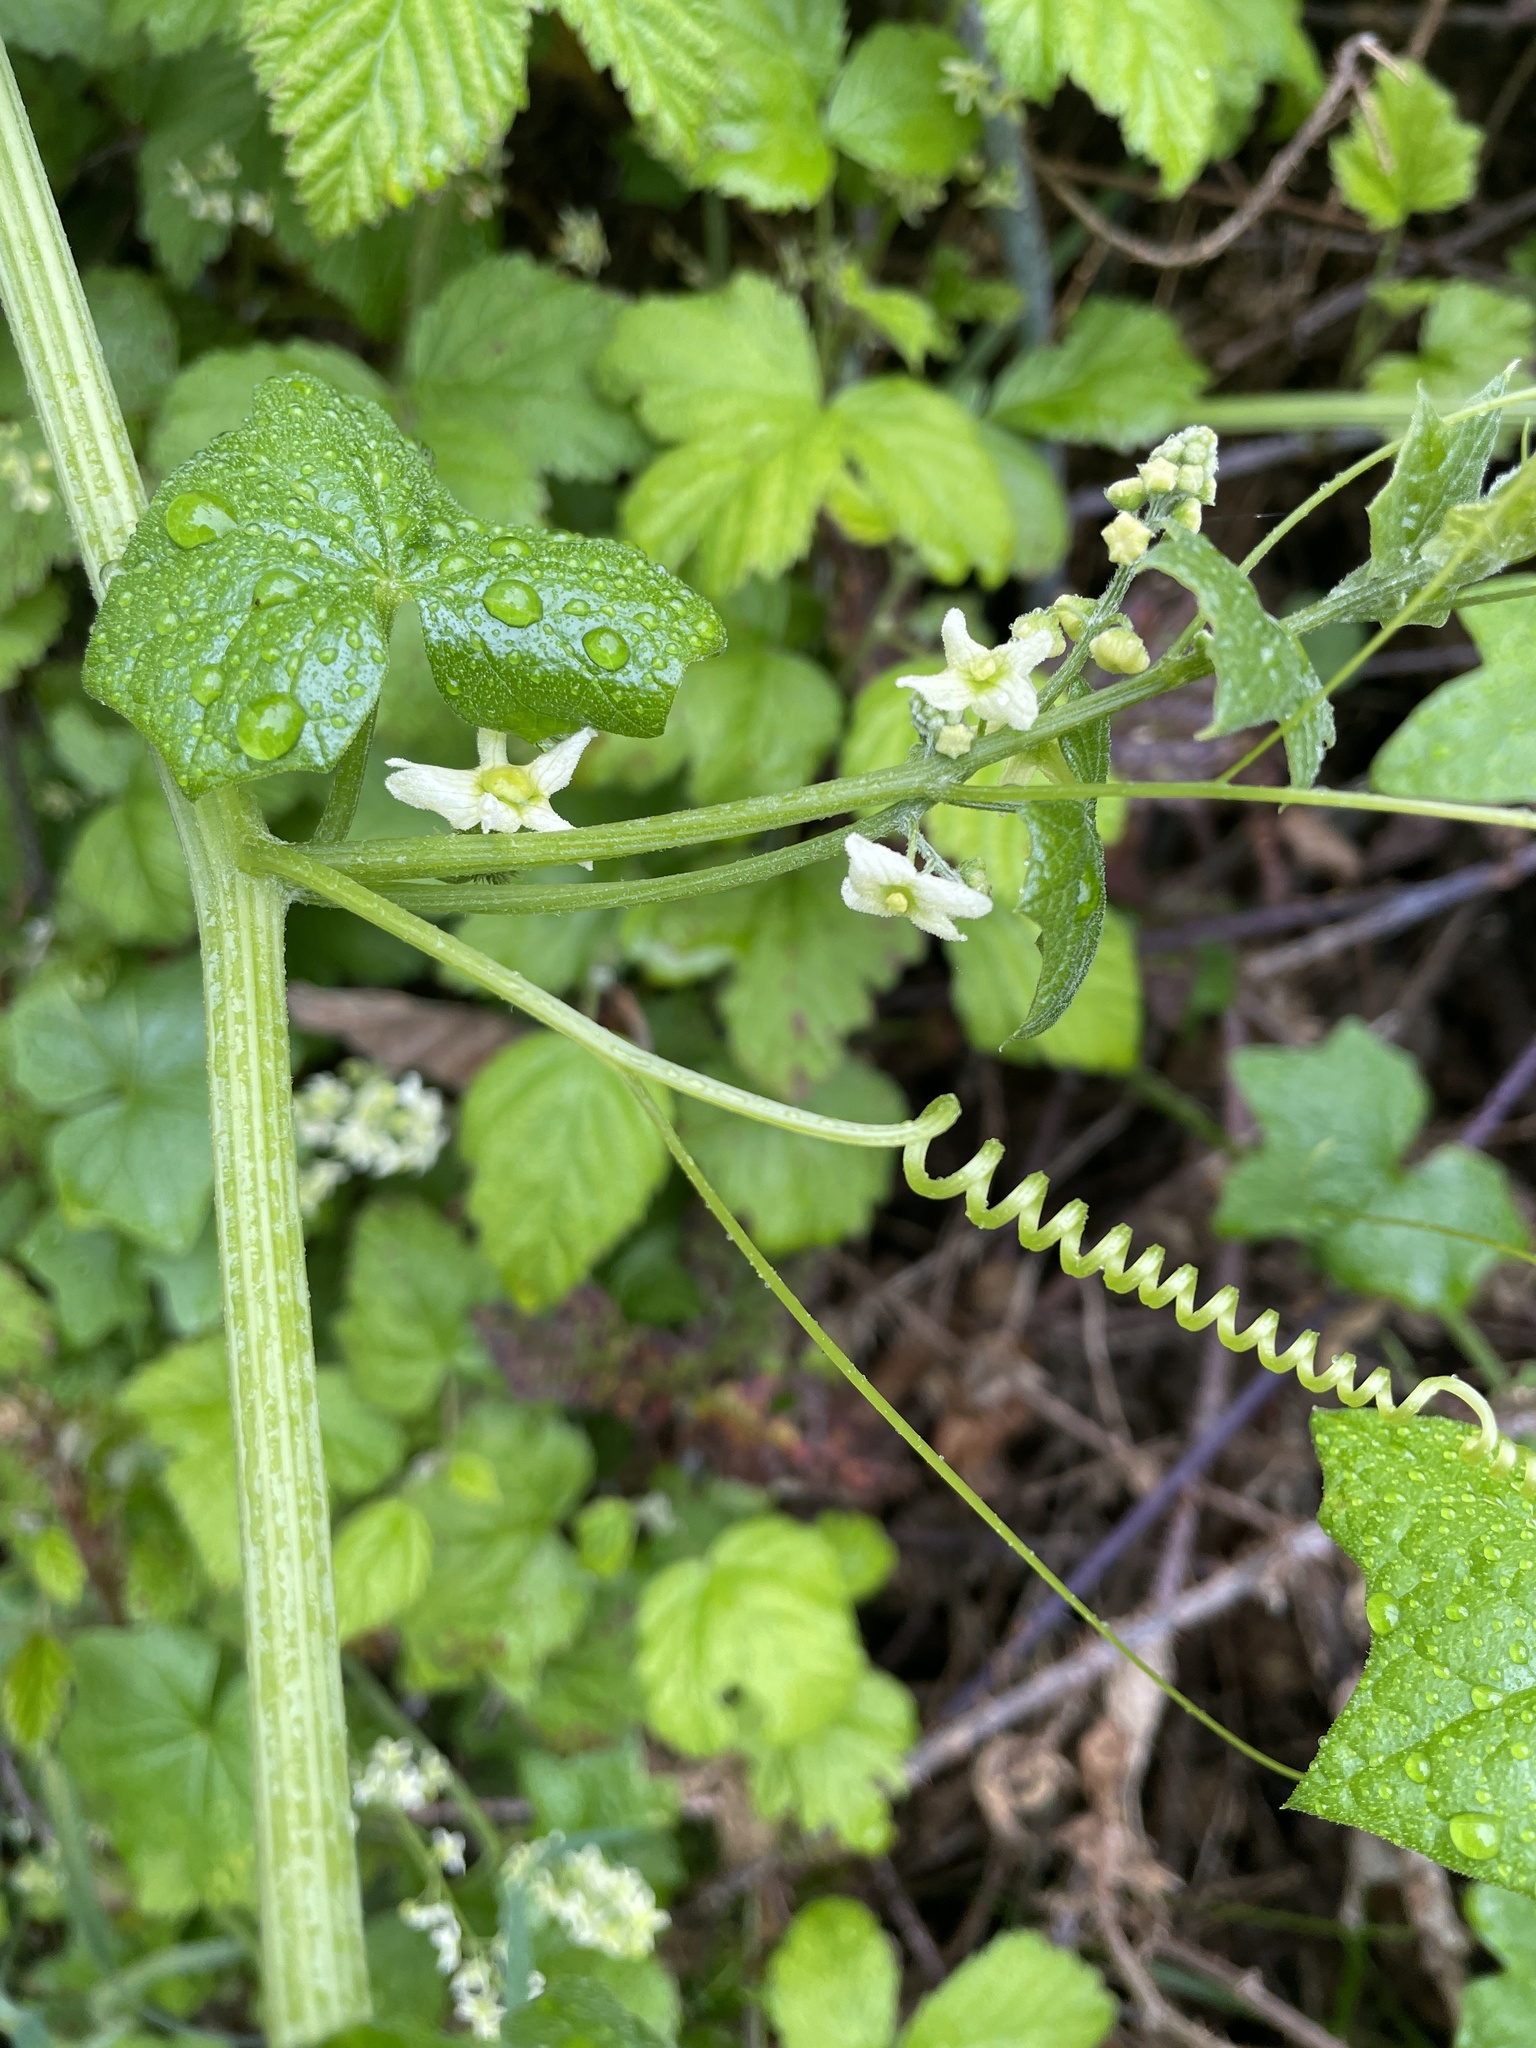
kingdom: Plantae
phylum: Tracheophyta
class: Magnoliopsida
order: Cucurbitales
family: Cucurbitaceae
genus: Marah
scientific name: Marah fabacea
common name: California manroot
